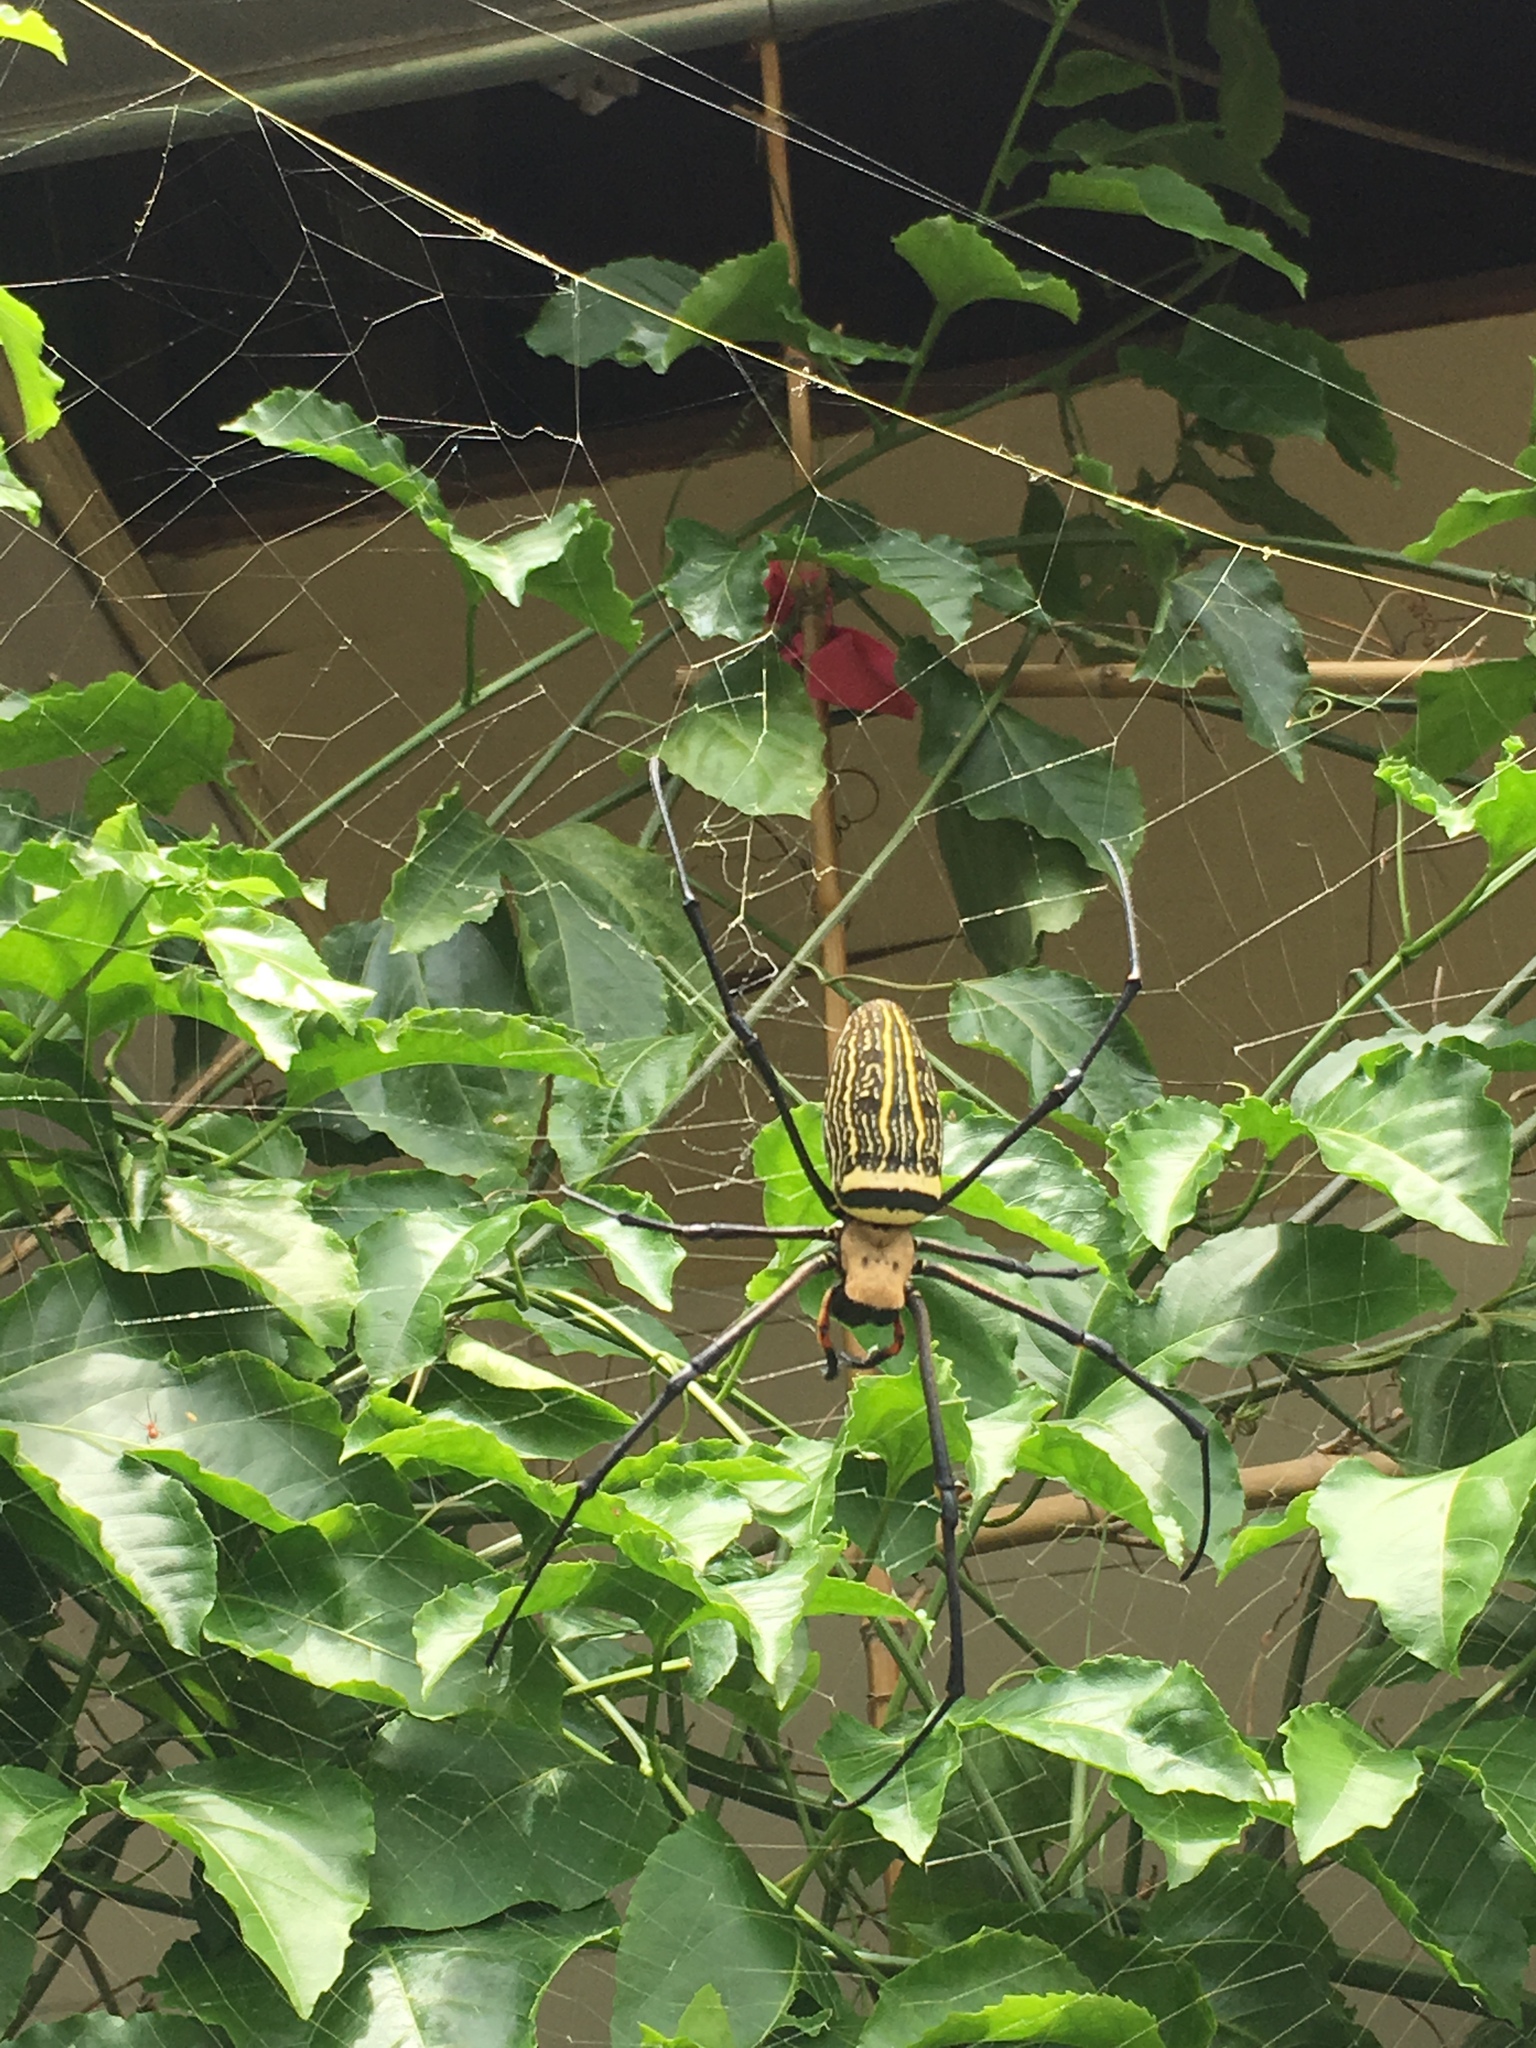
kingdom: Animalia
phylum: Arthropoda
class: Arachnida
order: Araneae
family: Araneidae
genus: Nephila
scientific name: Nephila pilipes
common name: Giant golden orb weaver
